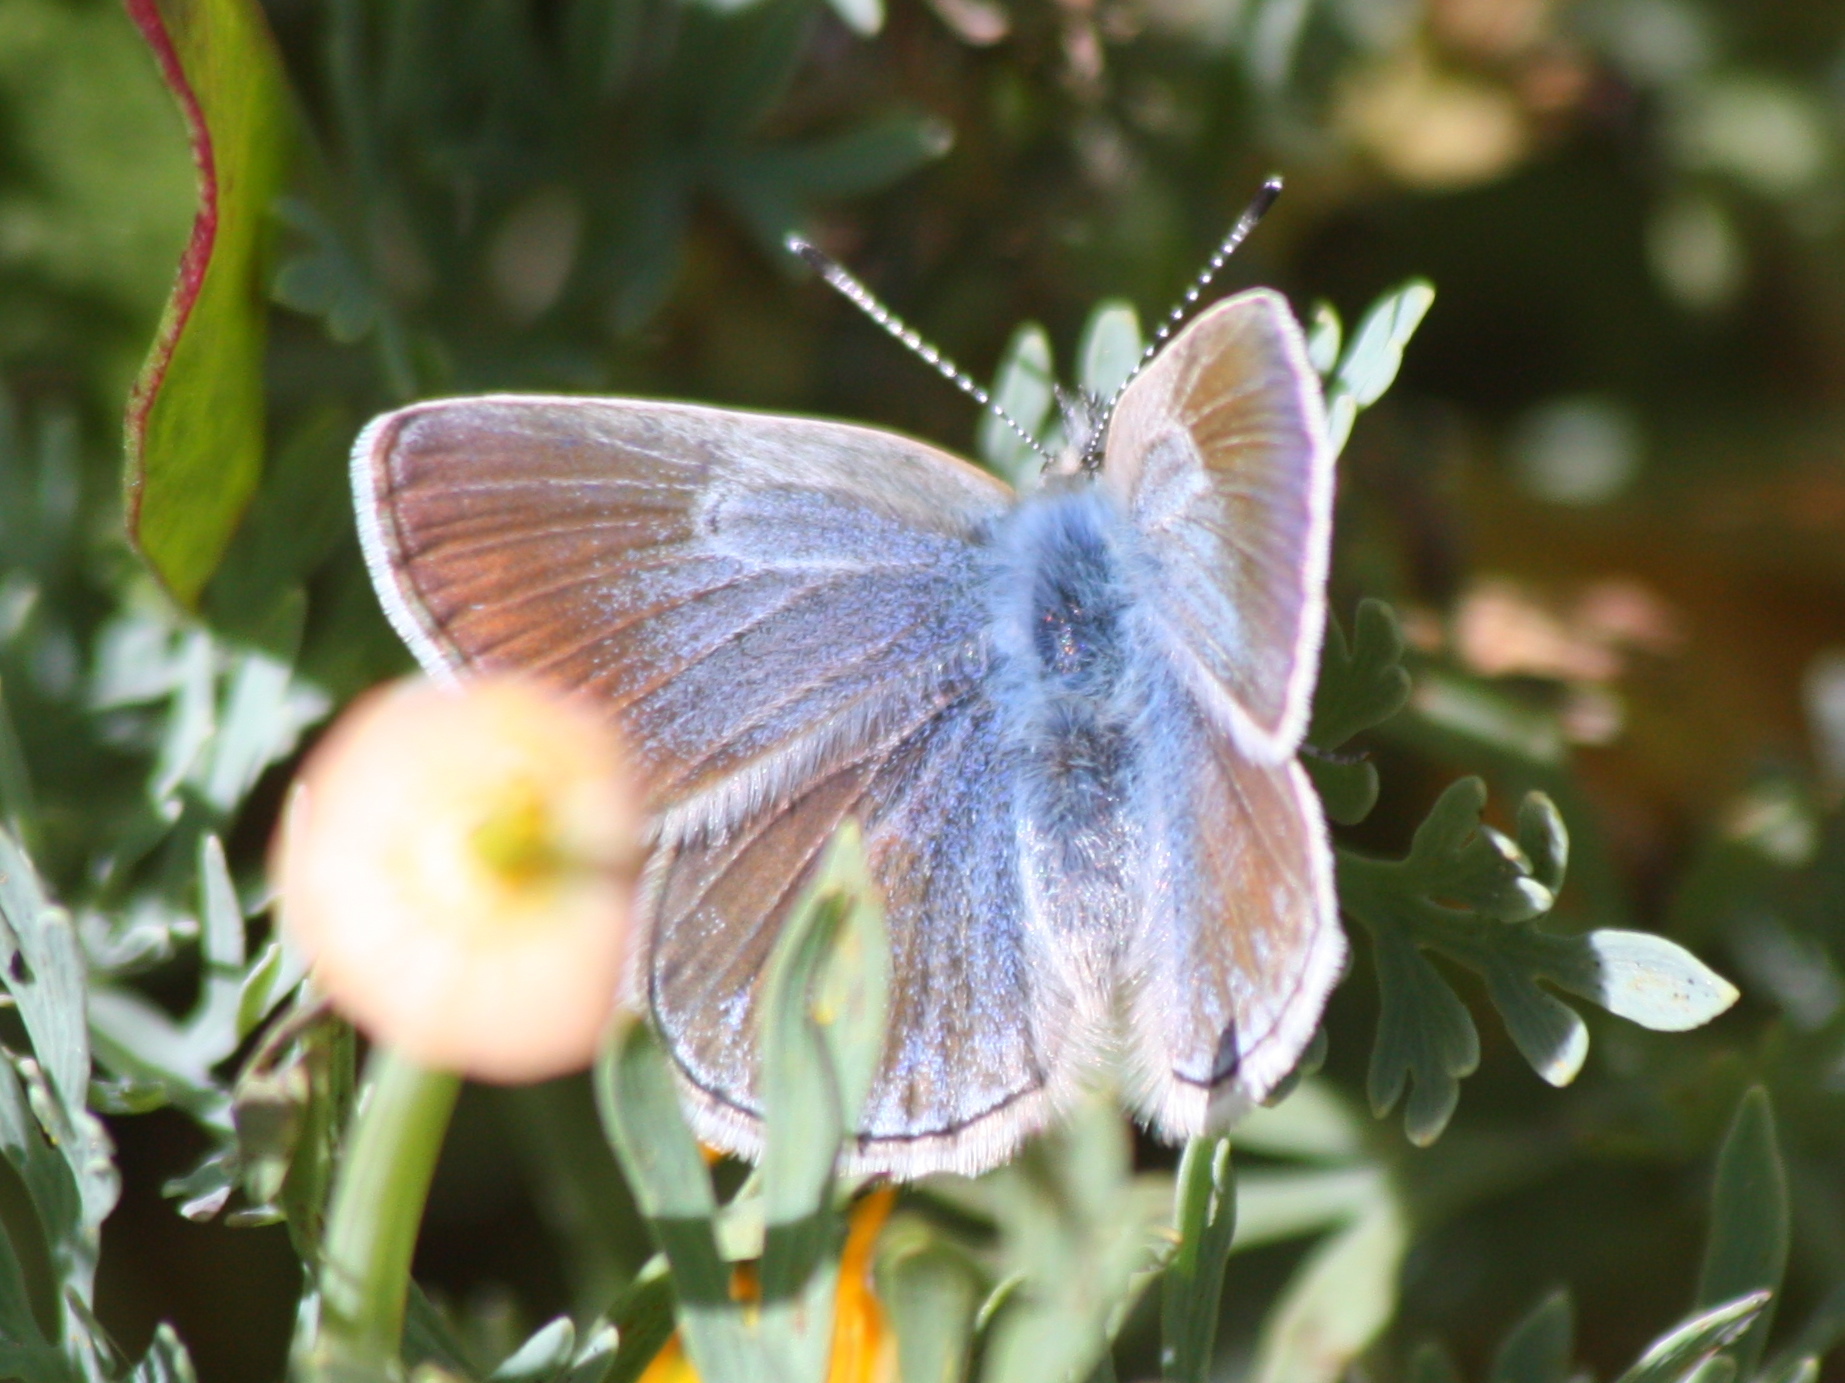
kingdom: Animalia
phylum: Arthropoda
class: Insecta
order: Lepidoptera
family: Lycaenidae
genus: Icaricia
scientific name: Icaricia icarioides
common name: Boisduval's blue
